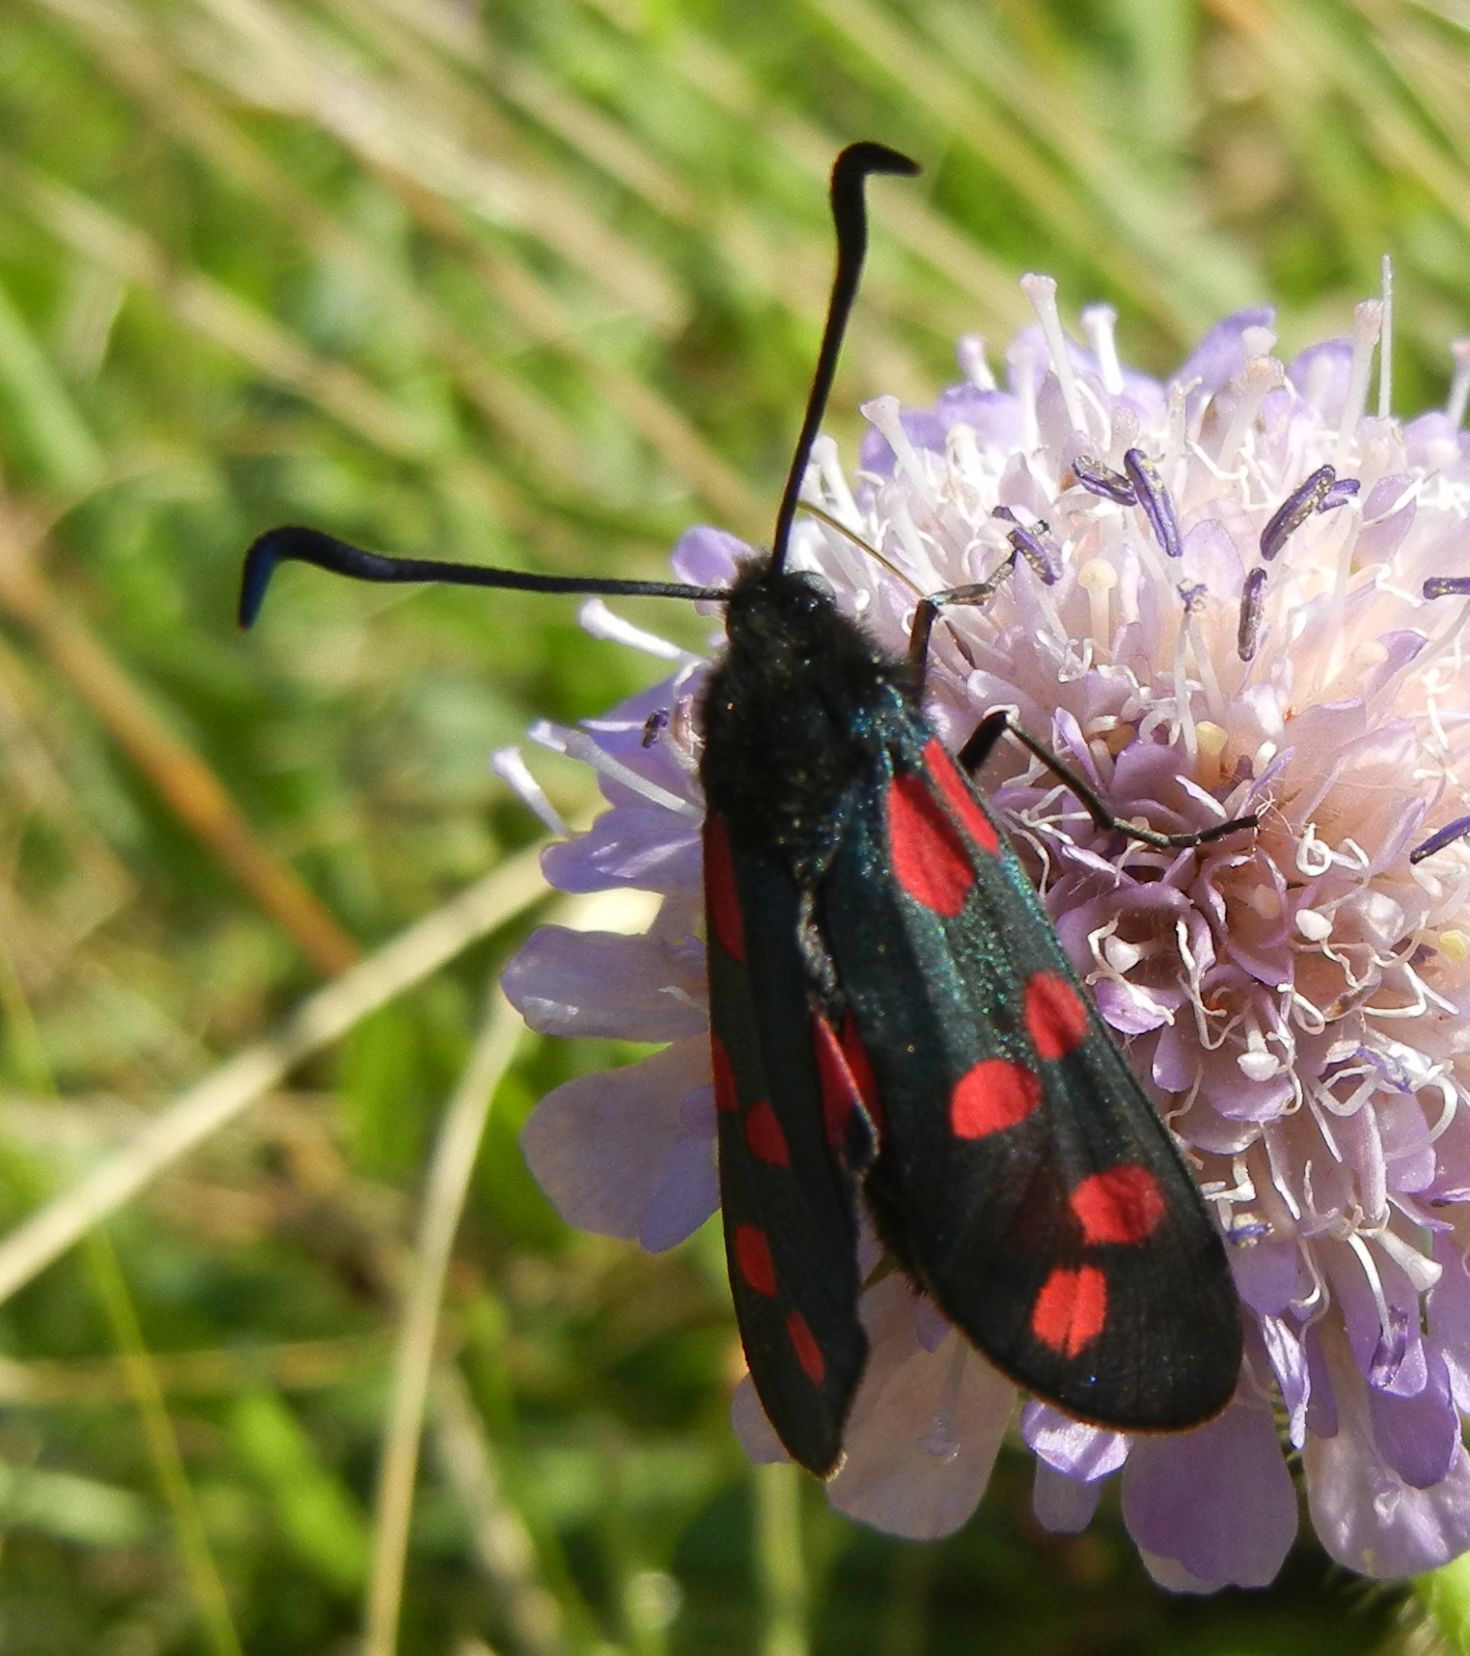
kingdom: Animalia
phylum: Arthropoda
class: Insecta
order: Lepidoptera
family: Zygaenidae
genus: Zygaena
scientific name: Zygaena filipendulae
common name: Six-spot burnet
